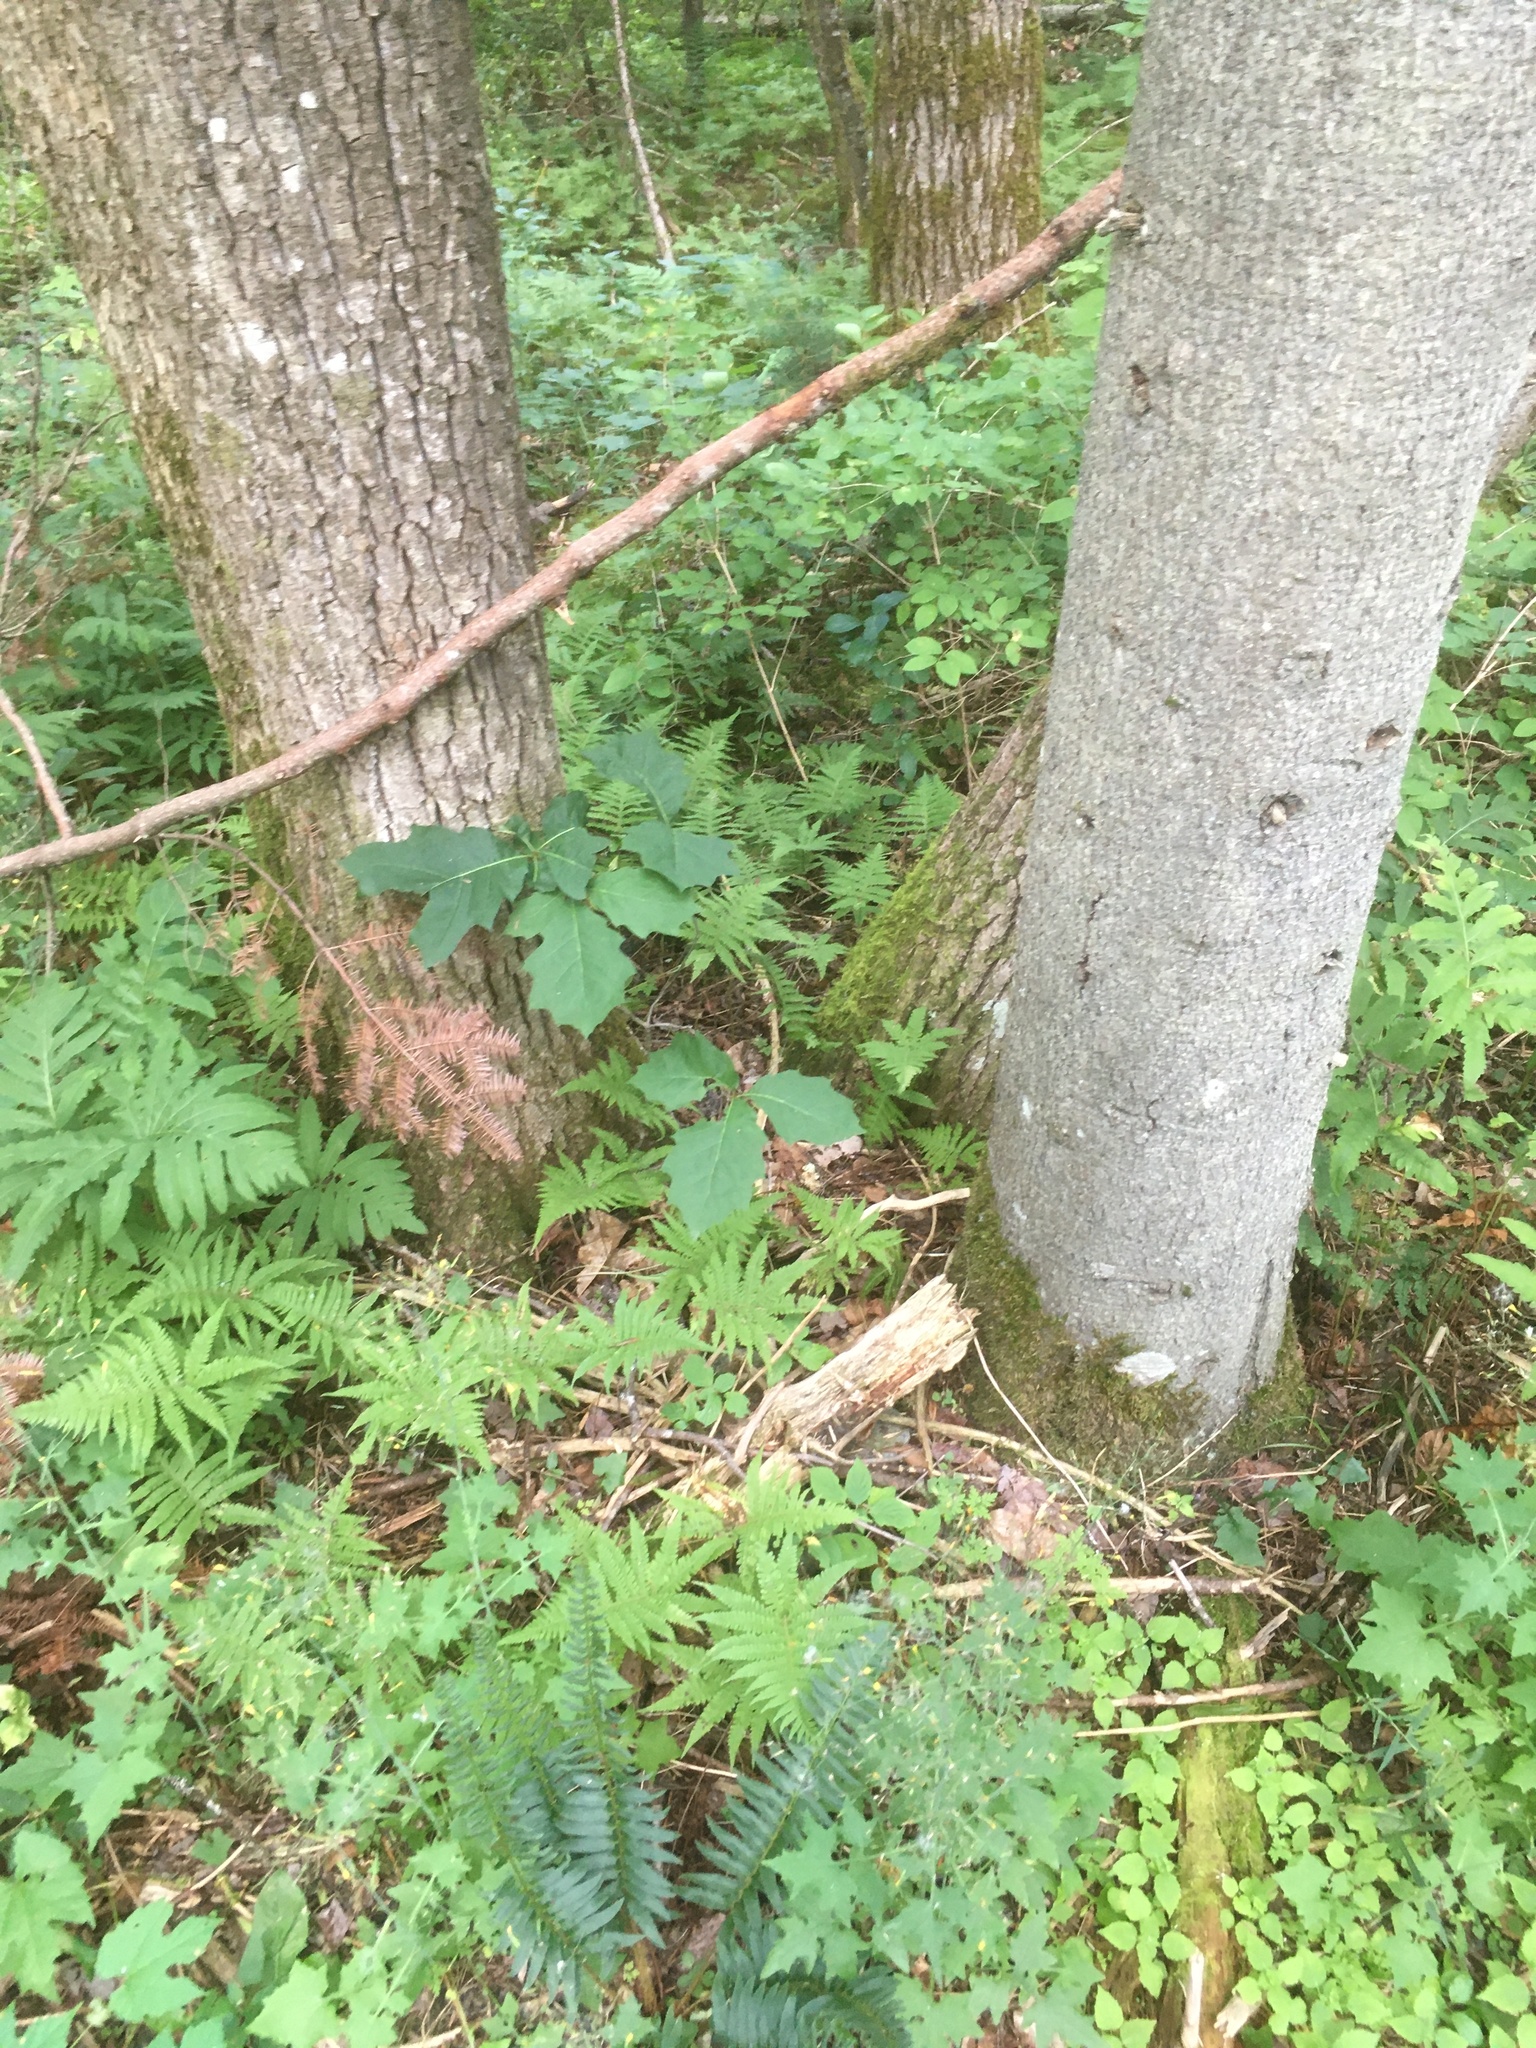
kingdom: Plantae
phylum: Tracheophyta
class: Magnoliopsida
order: Fagales
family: Fagaceae
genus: Quercus
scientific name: Quercus rubra
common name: Red oak
